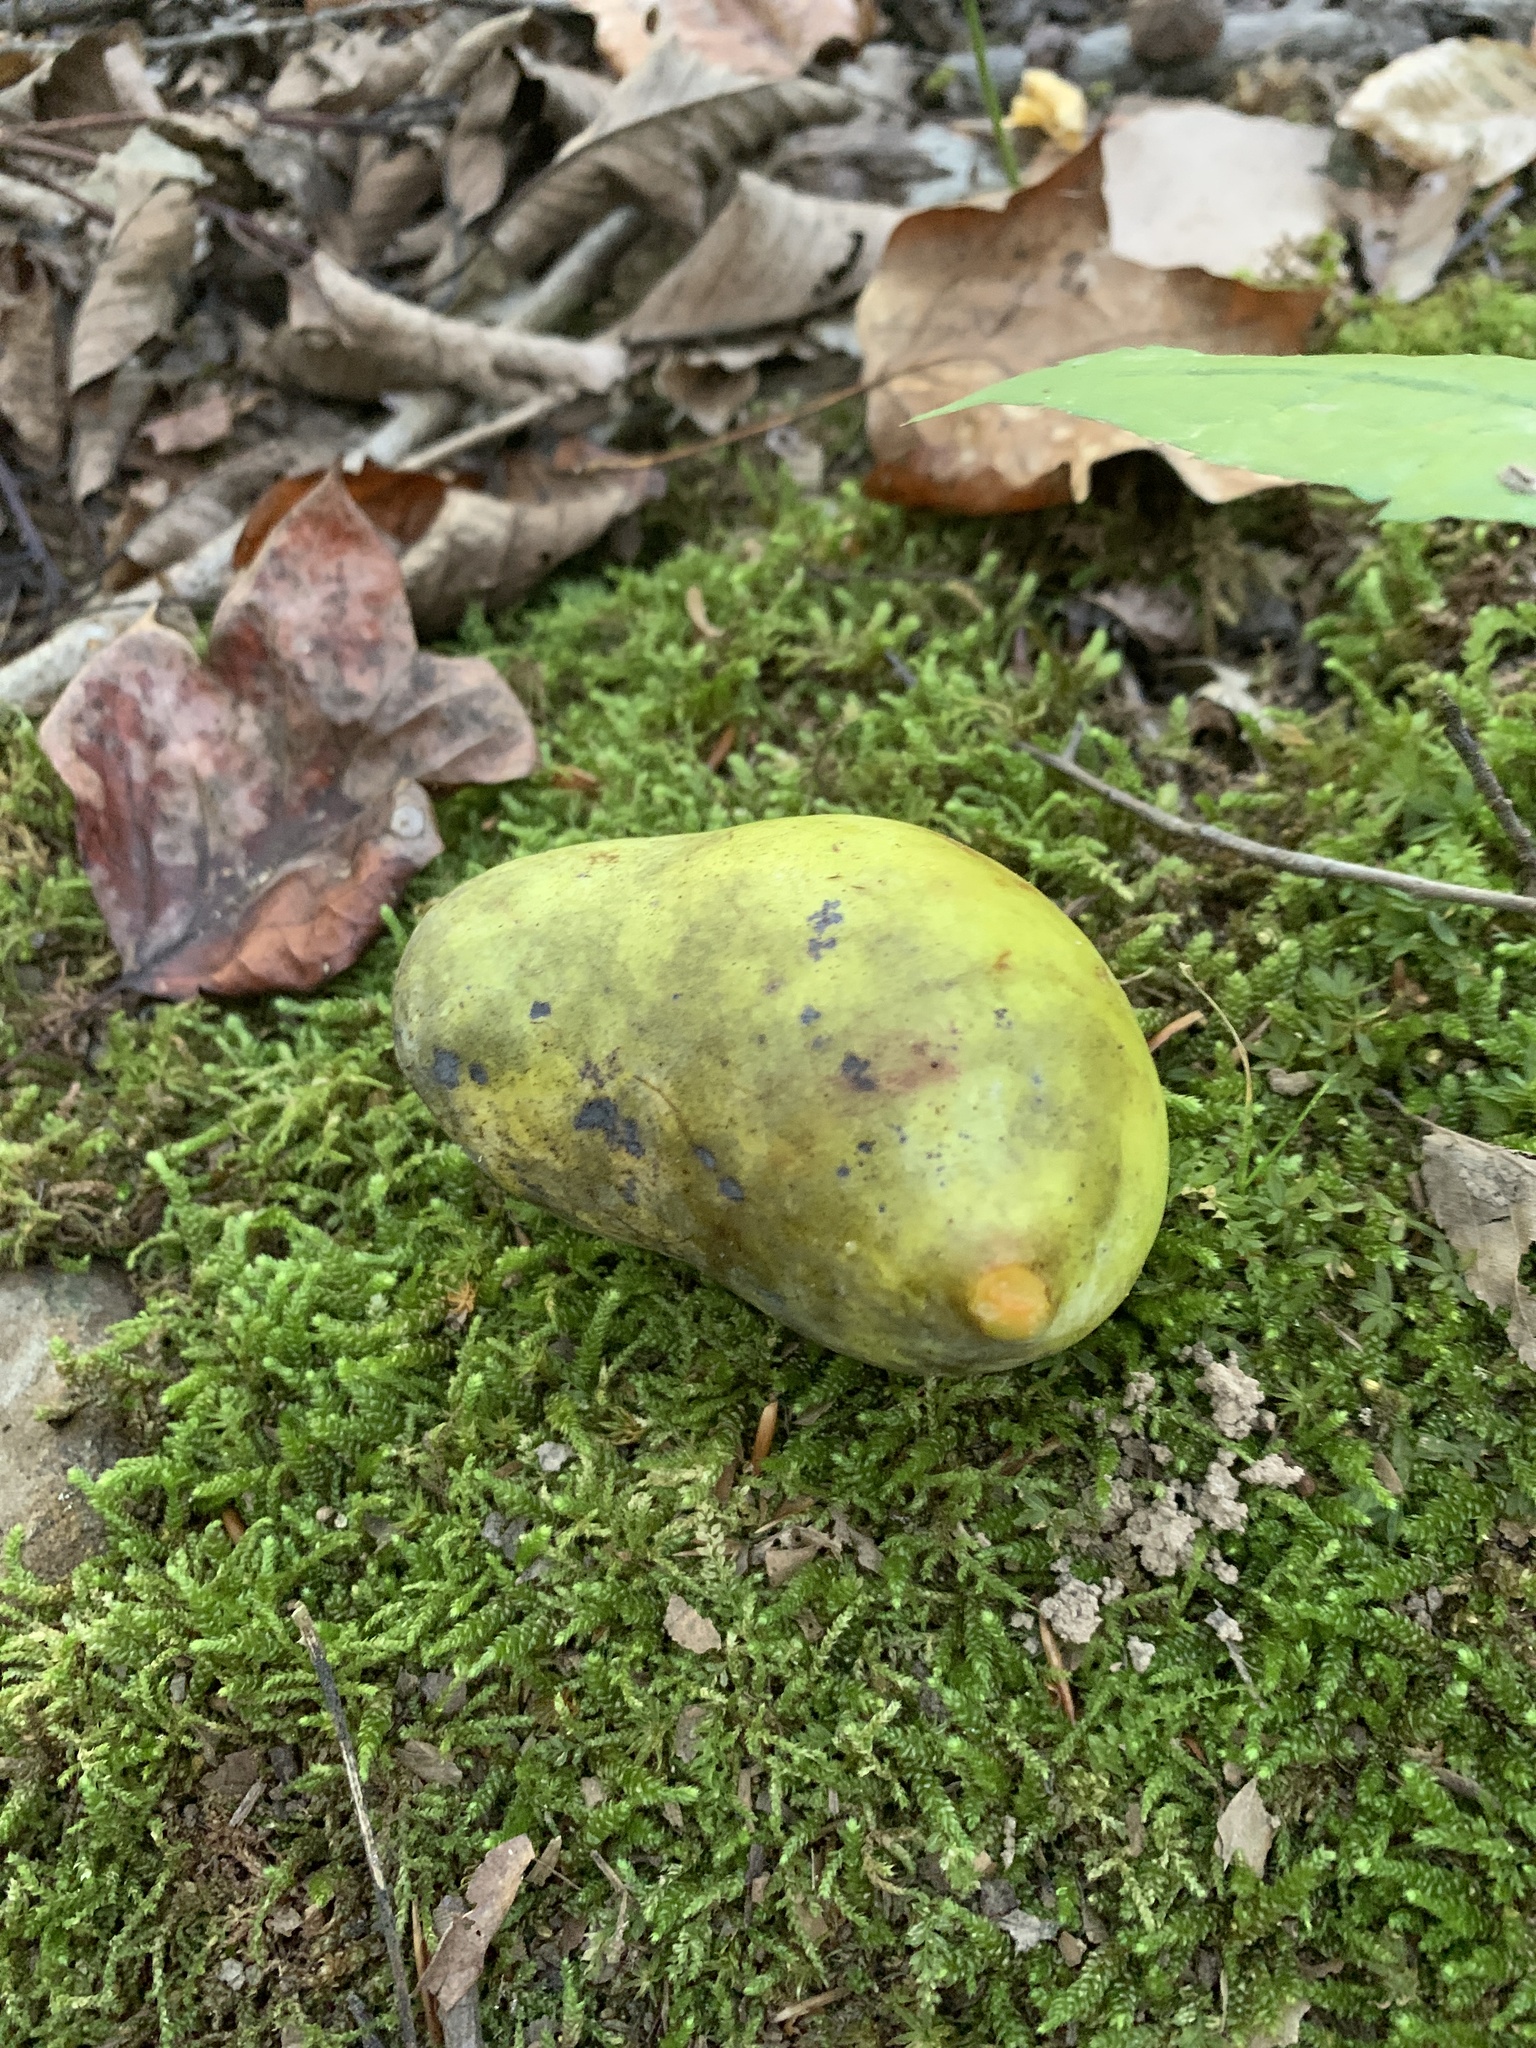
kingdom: Plantae
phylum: Tracheophyta
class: Magnoliopsida
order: Magnoliales
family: Annonaceae
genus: Asimina
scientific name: Asimina triloba
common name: Dog-banana
